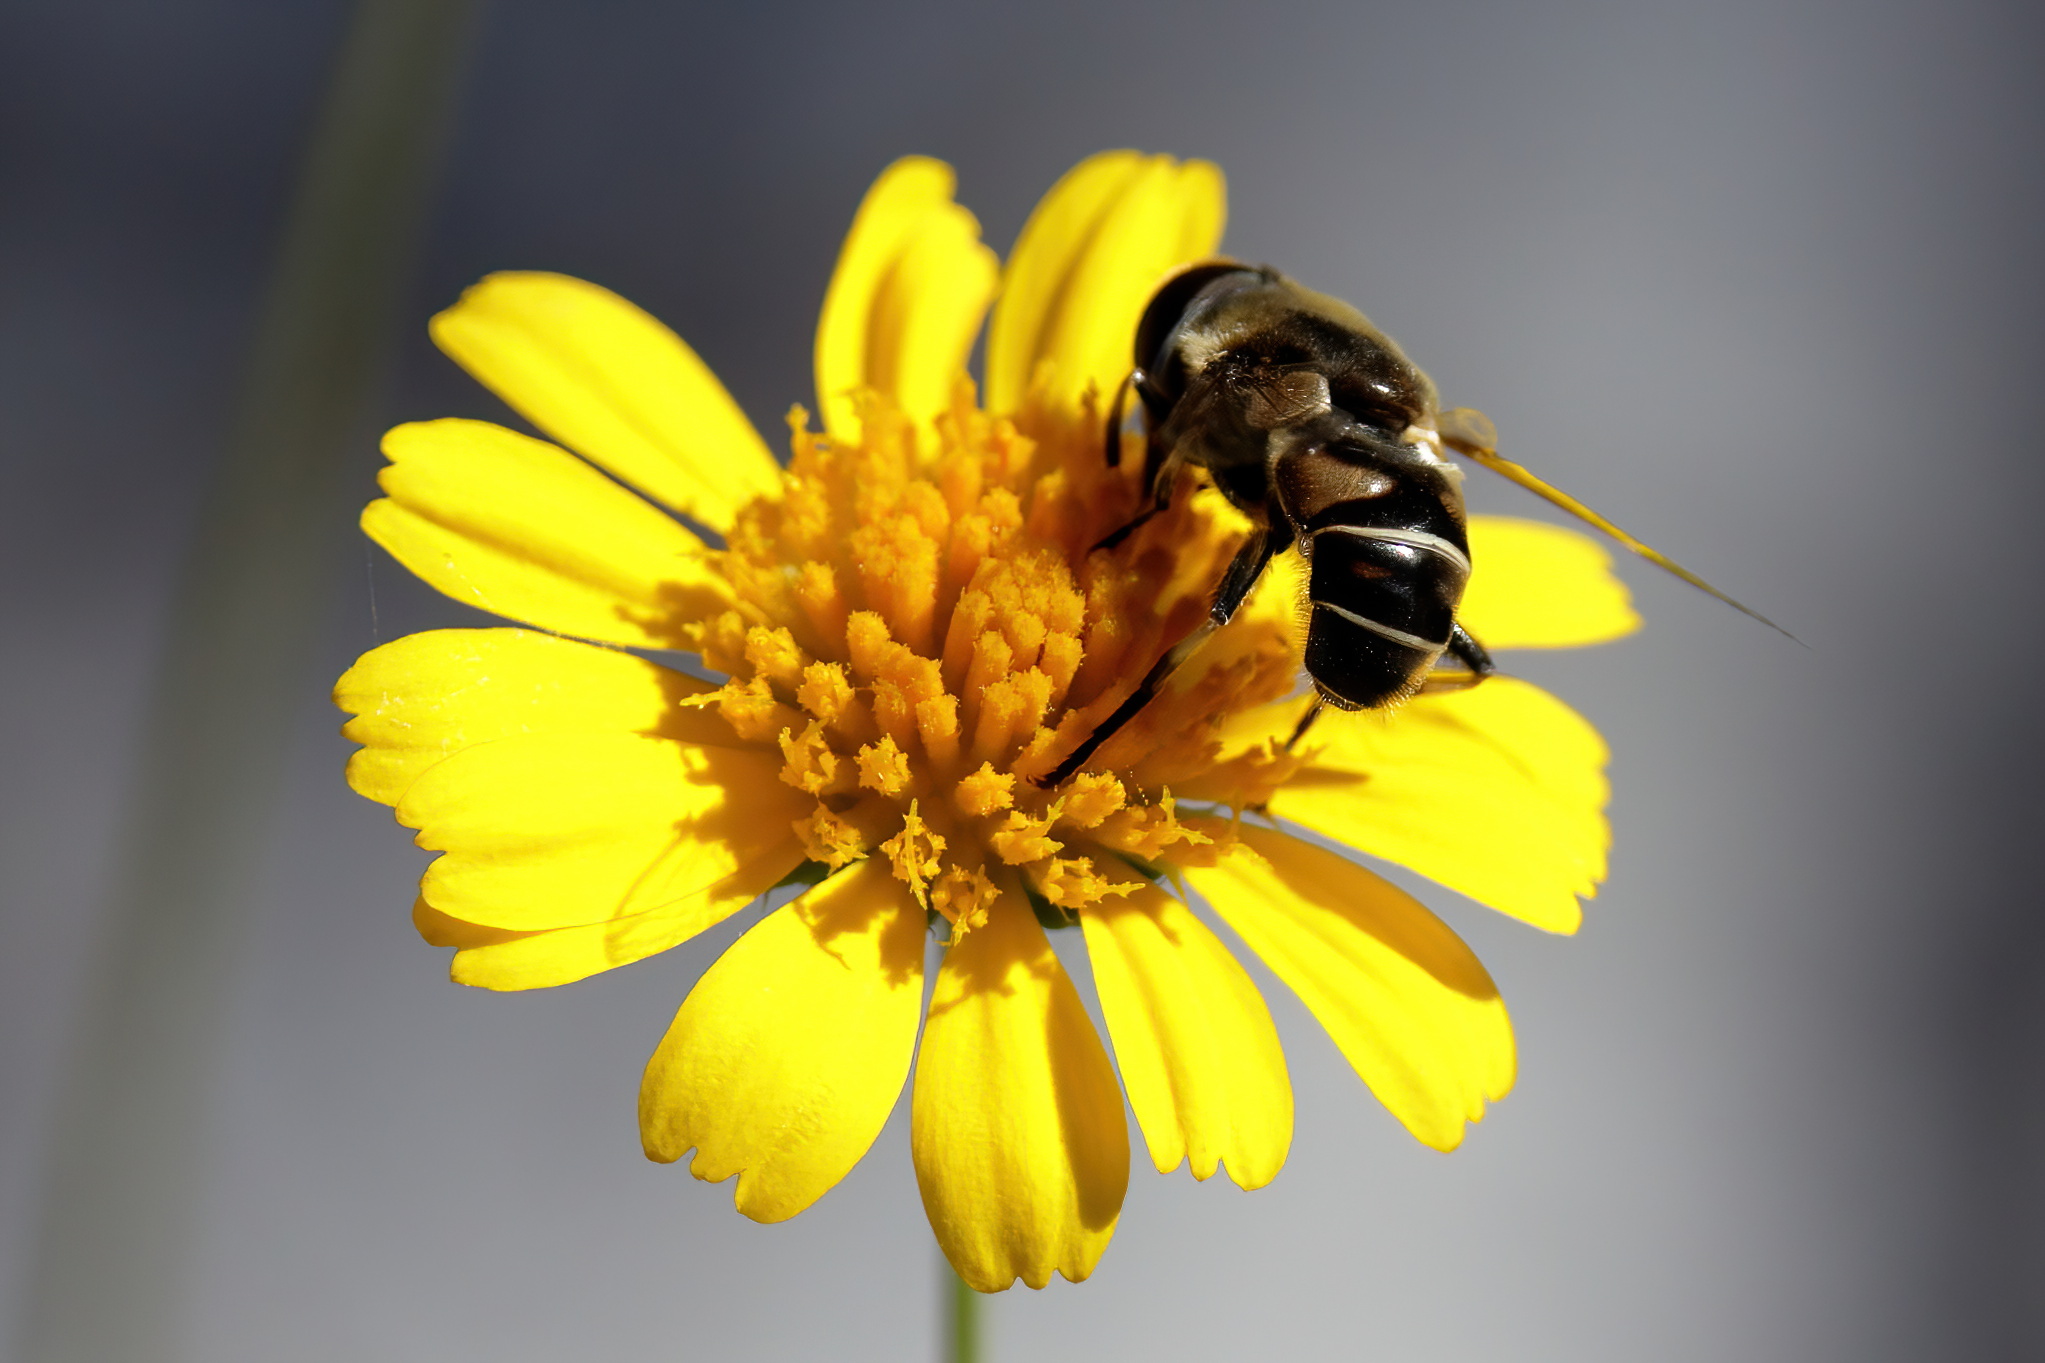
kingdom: Animalia
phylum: Arthropoda
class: Insecta
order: Diptera
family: Syrphidae
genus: Eristalis
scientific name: Eristalis dimidiata
